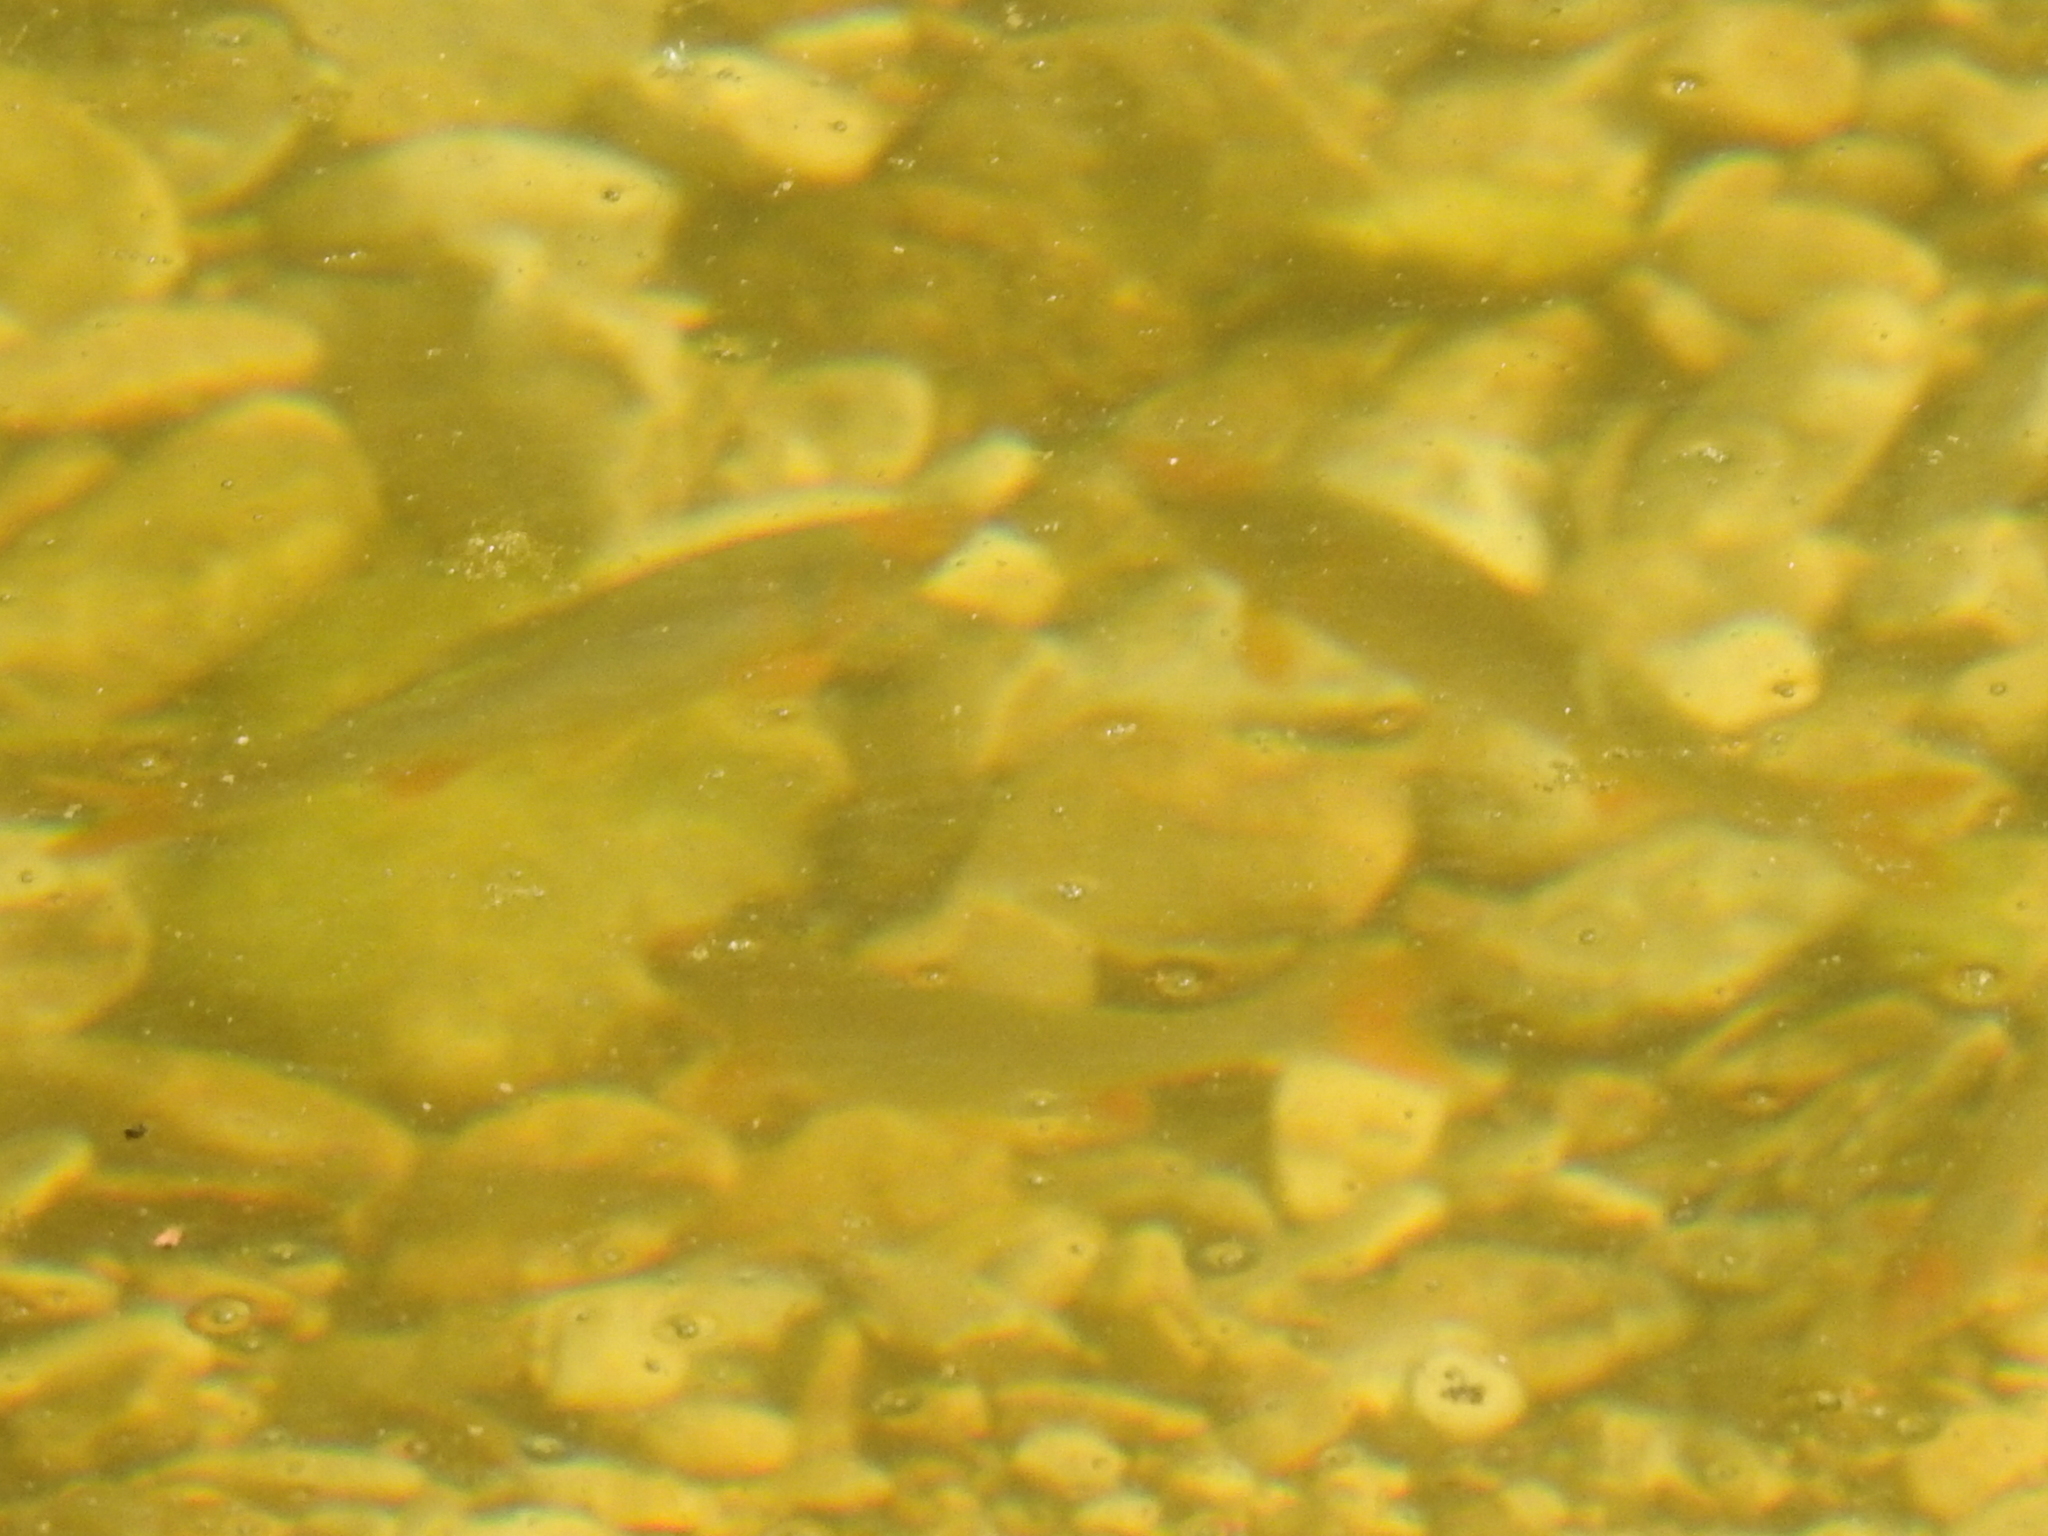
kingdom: Animalia
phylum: Chordata
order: Cypriniformes
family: Cyprinidae
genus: Cyprinella
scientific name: Cyprinella lutrensis
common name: Red shiner
